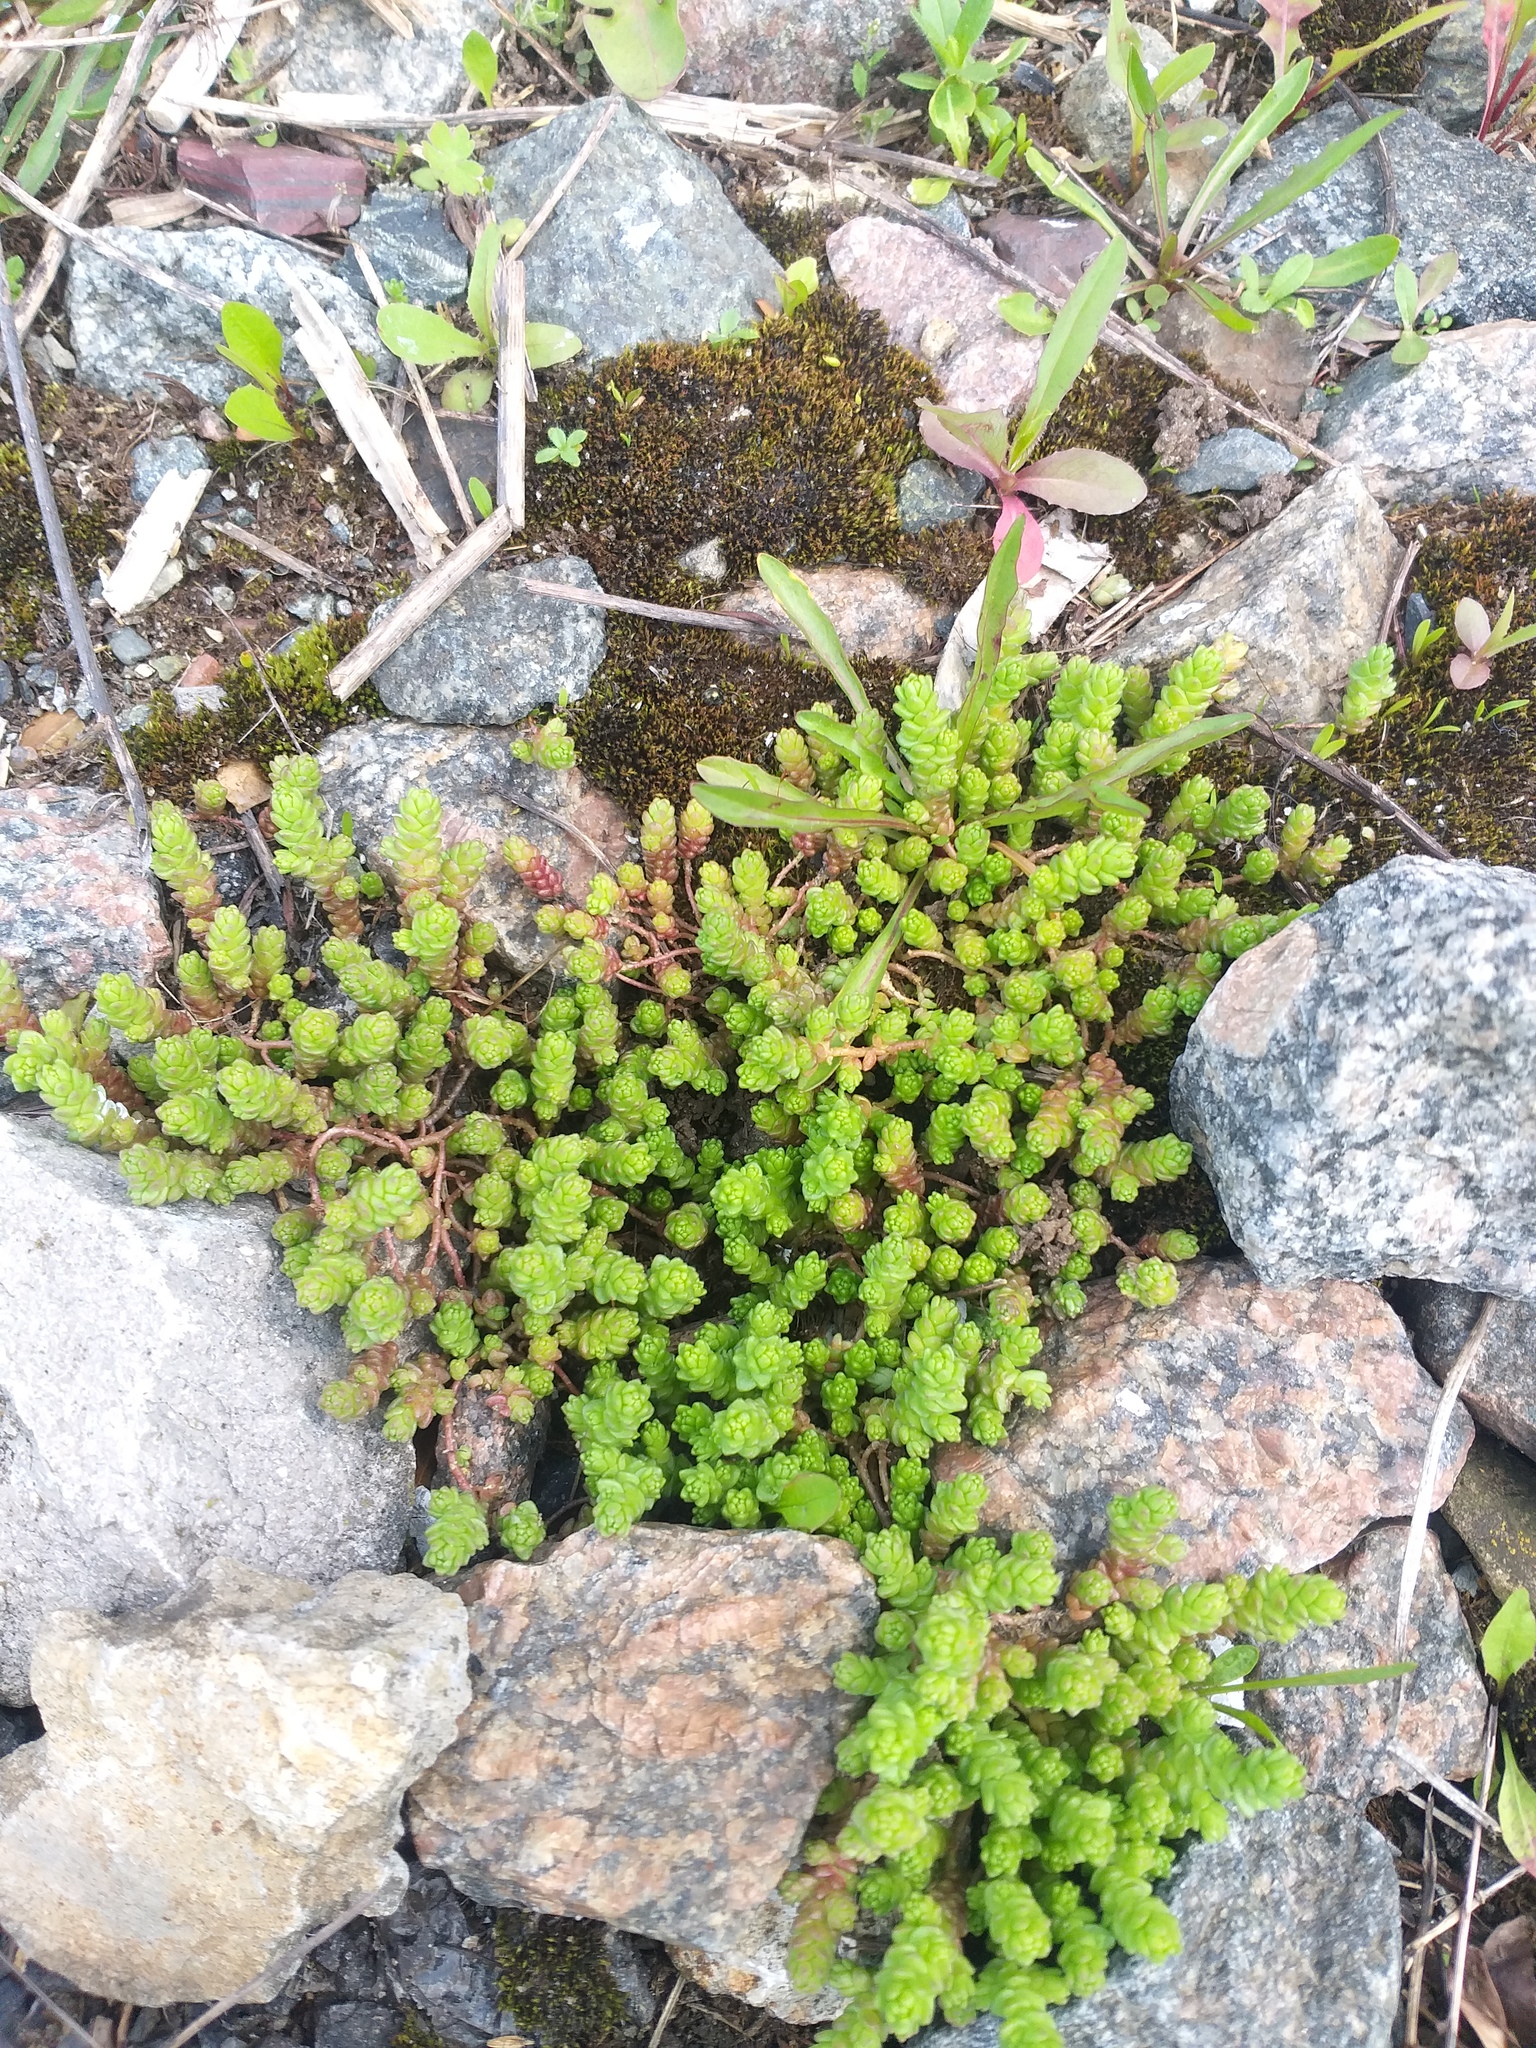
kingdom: Plantae
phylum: Tracheophyta
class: Magnoliopsida
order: Saxifragales
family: Crassulaceae
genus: Sedum
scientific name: Sedum acre
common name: Biting stonecrop
